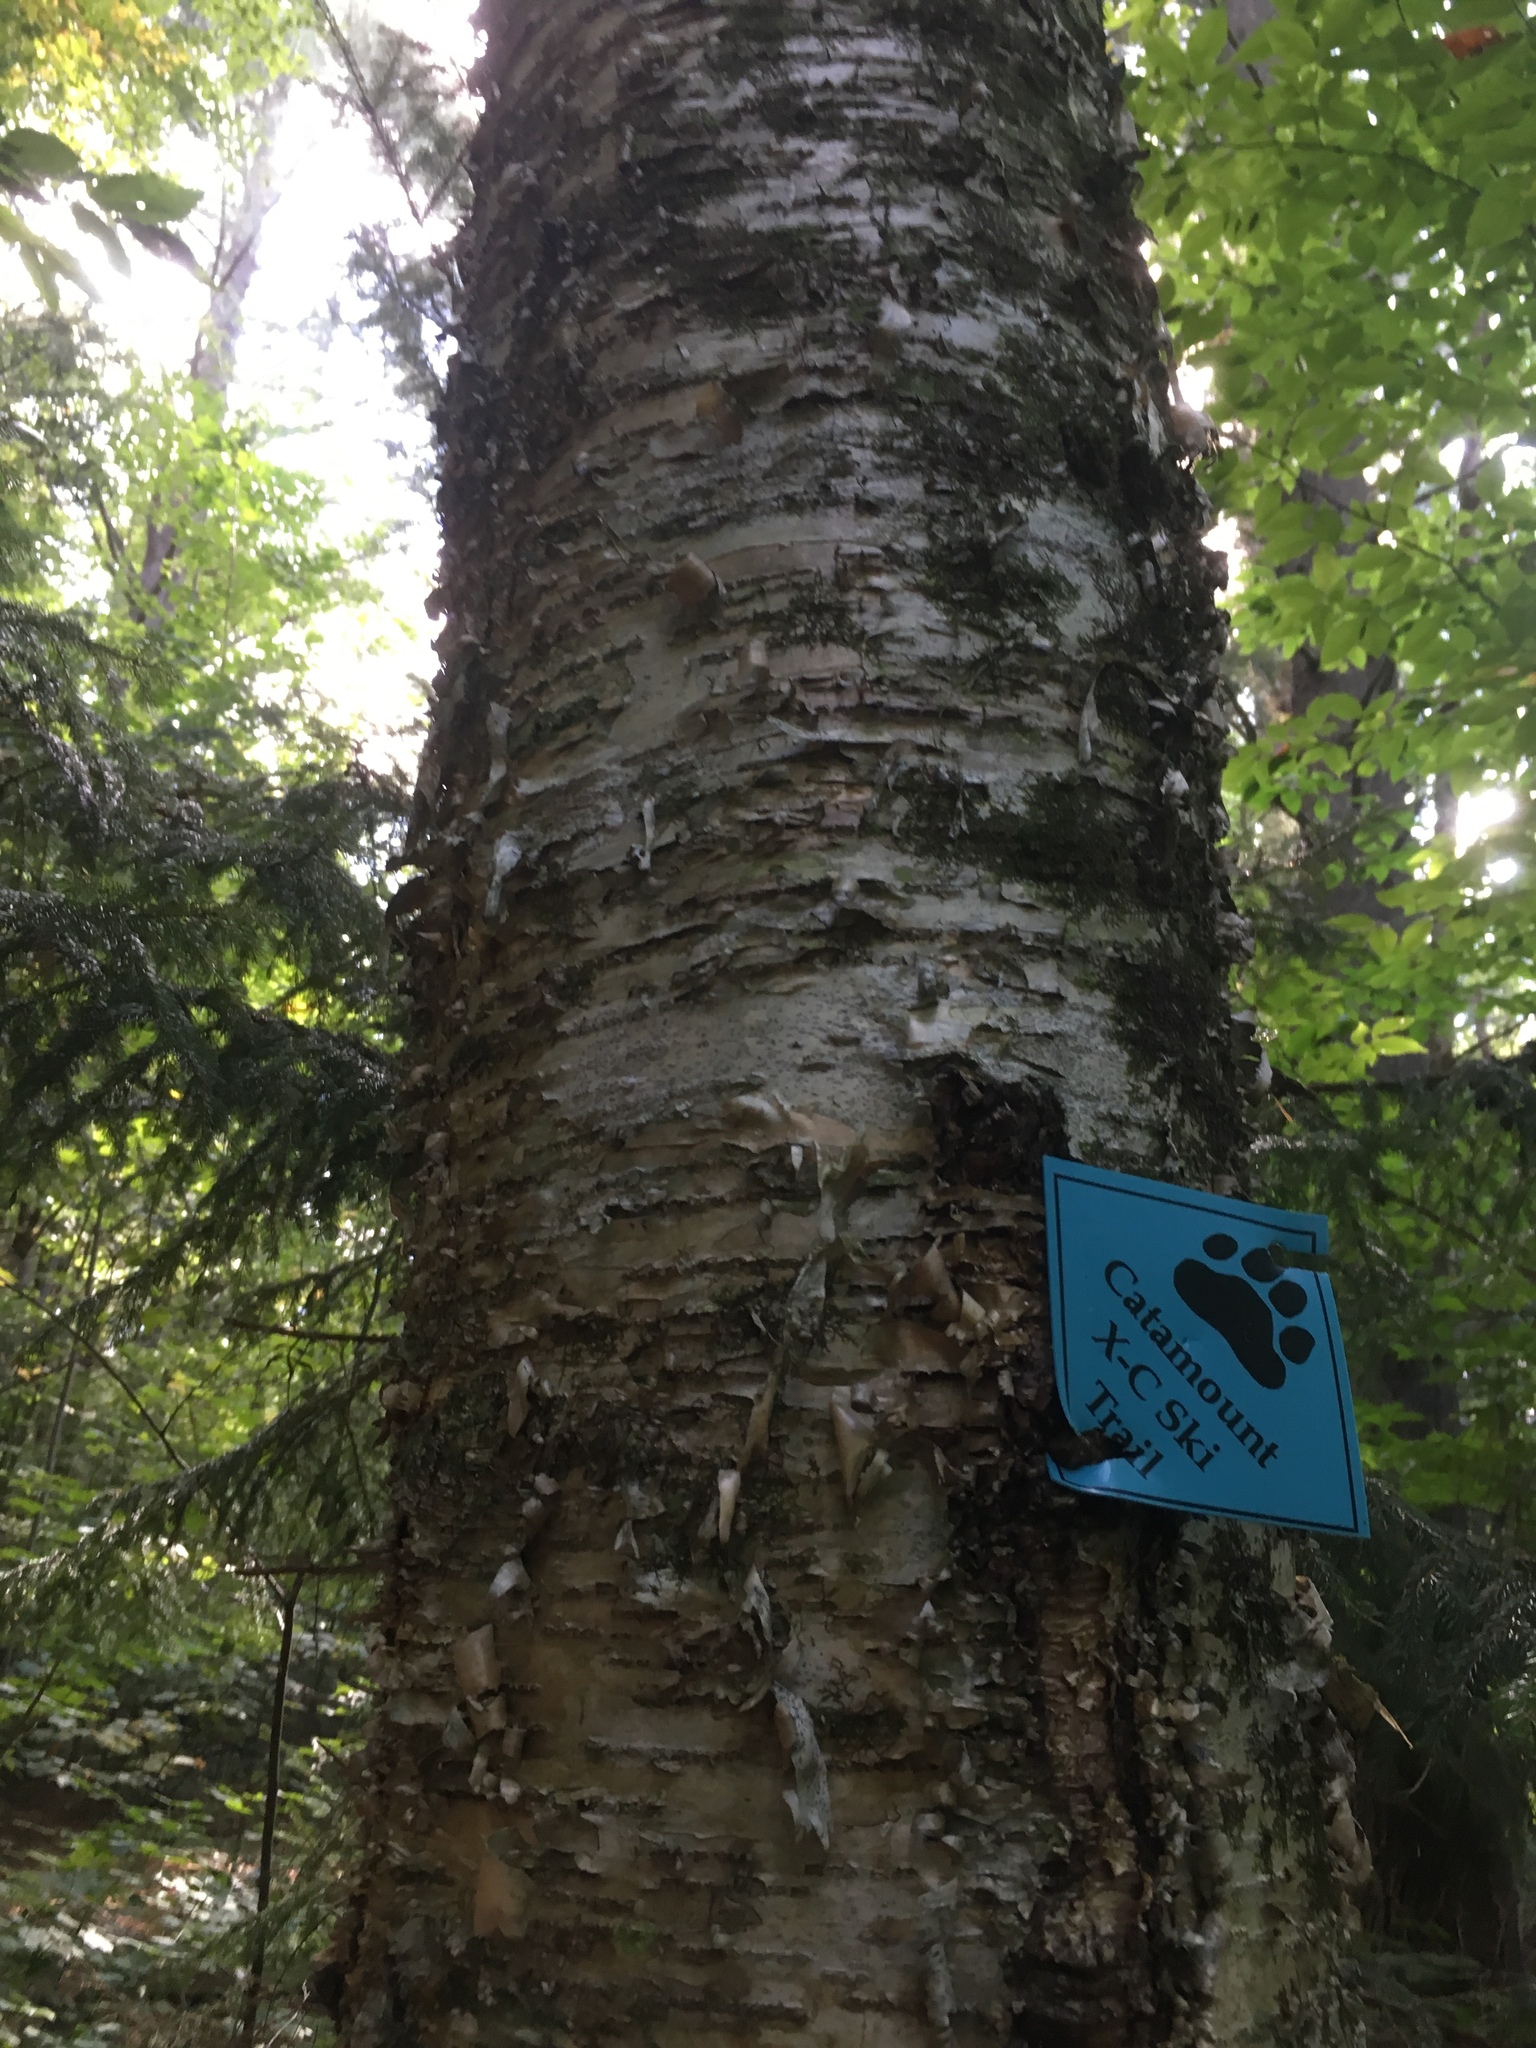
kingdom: Plantae
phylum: Tracheophyta
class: Magnoliopsida
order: Fagales
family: Betulaceae
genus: Betula
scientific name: Betula alleghaniensis
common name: Yellow birch
